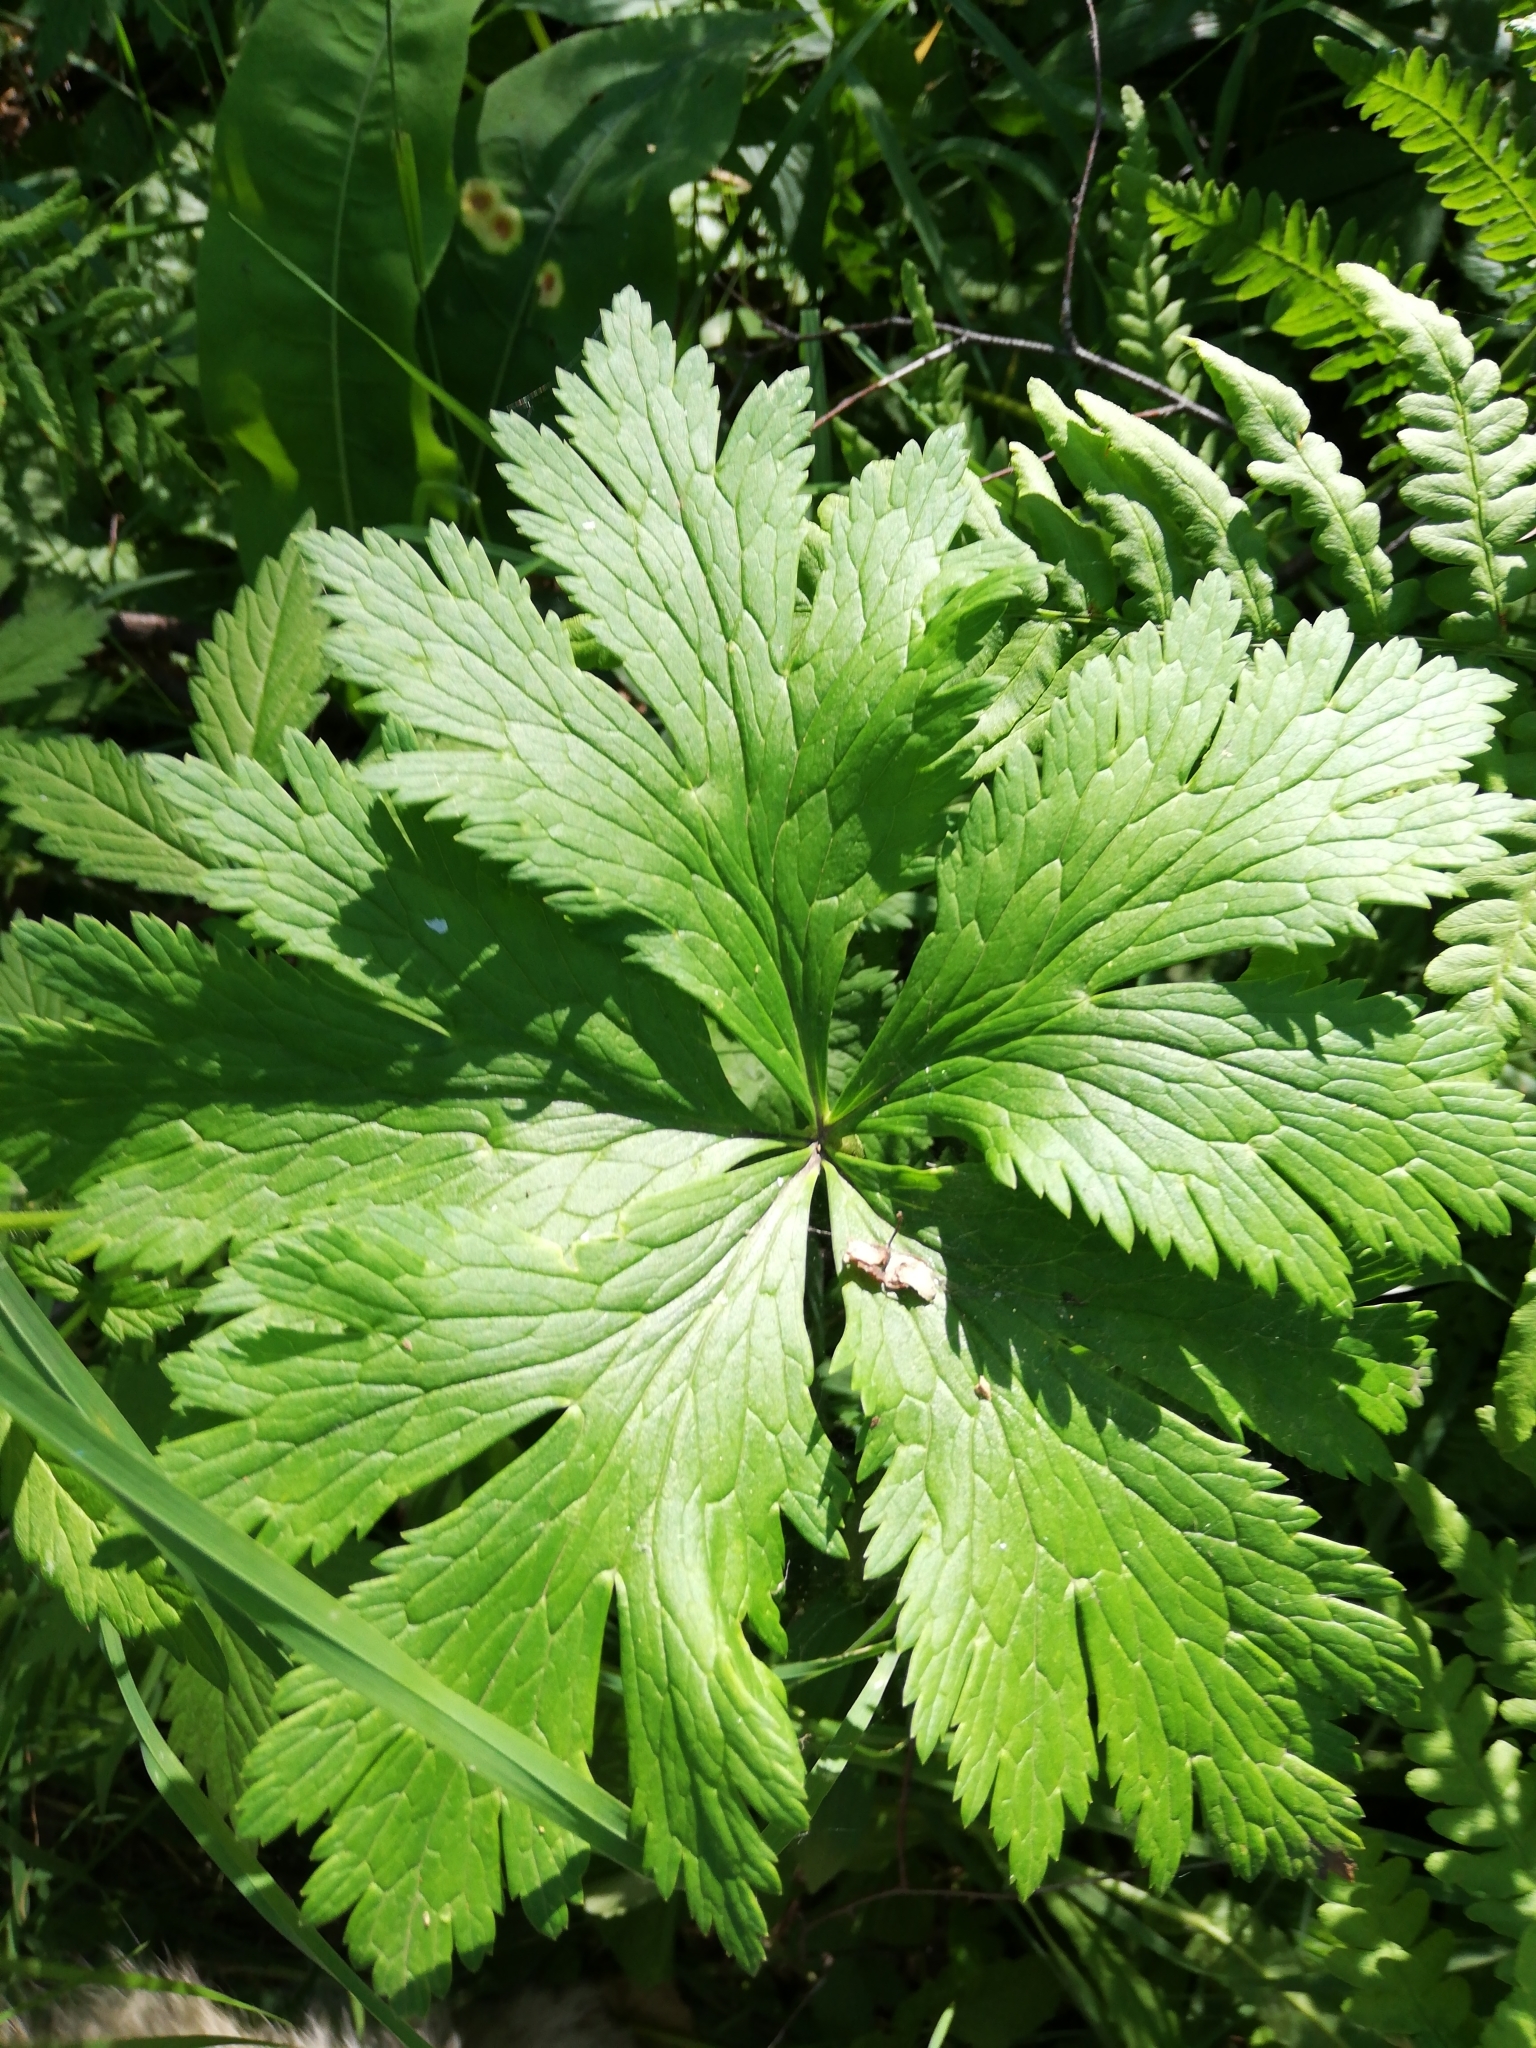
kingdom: Plantae
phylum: Tracheophyta
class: Magnoliopsida
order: Ranunculales
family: Ranunculaceae
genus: Trollius
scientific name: Trollius asiaticus
